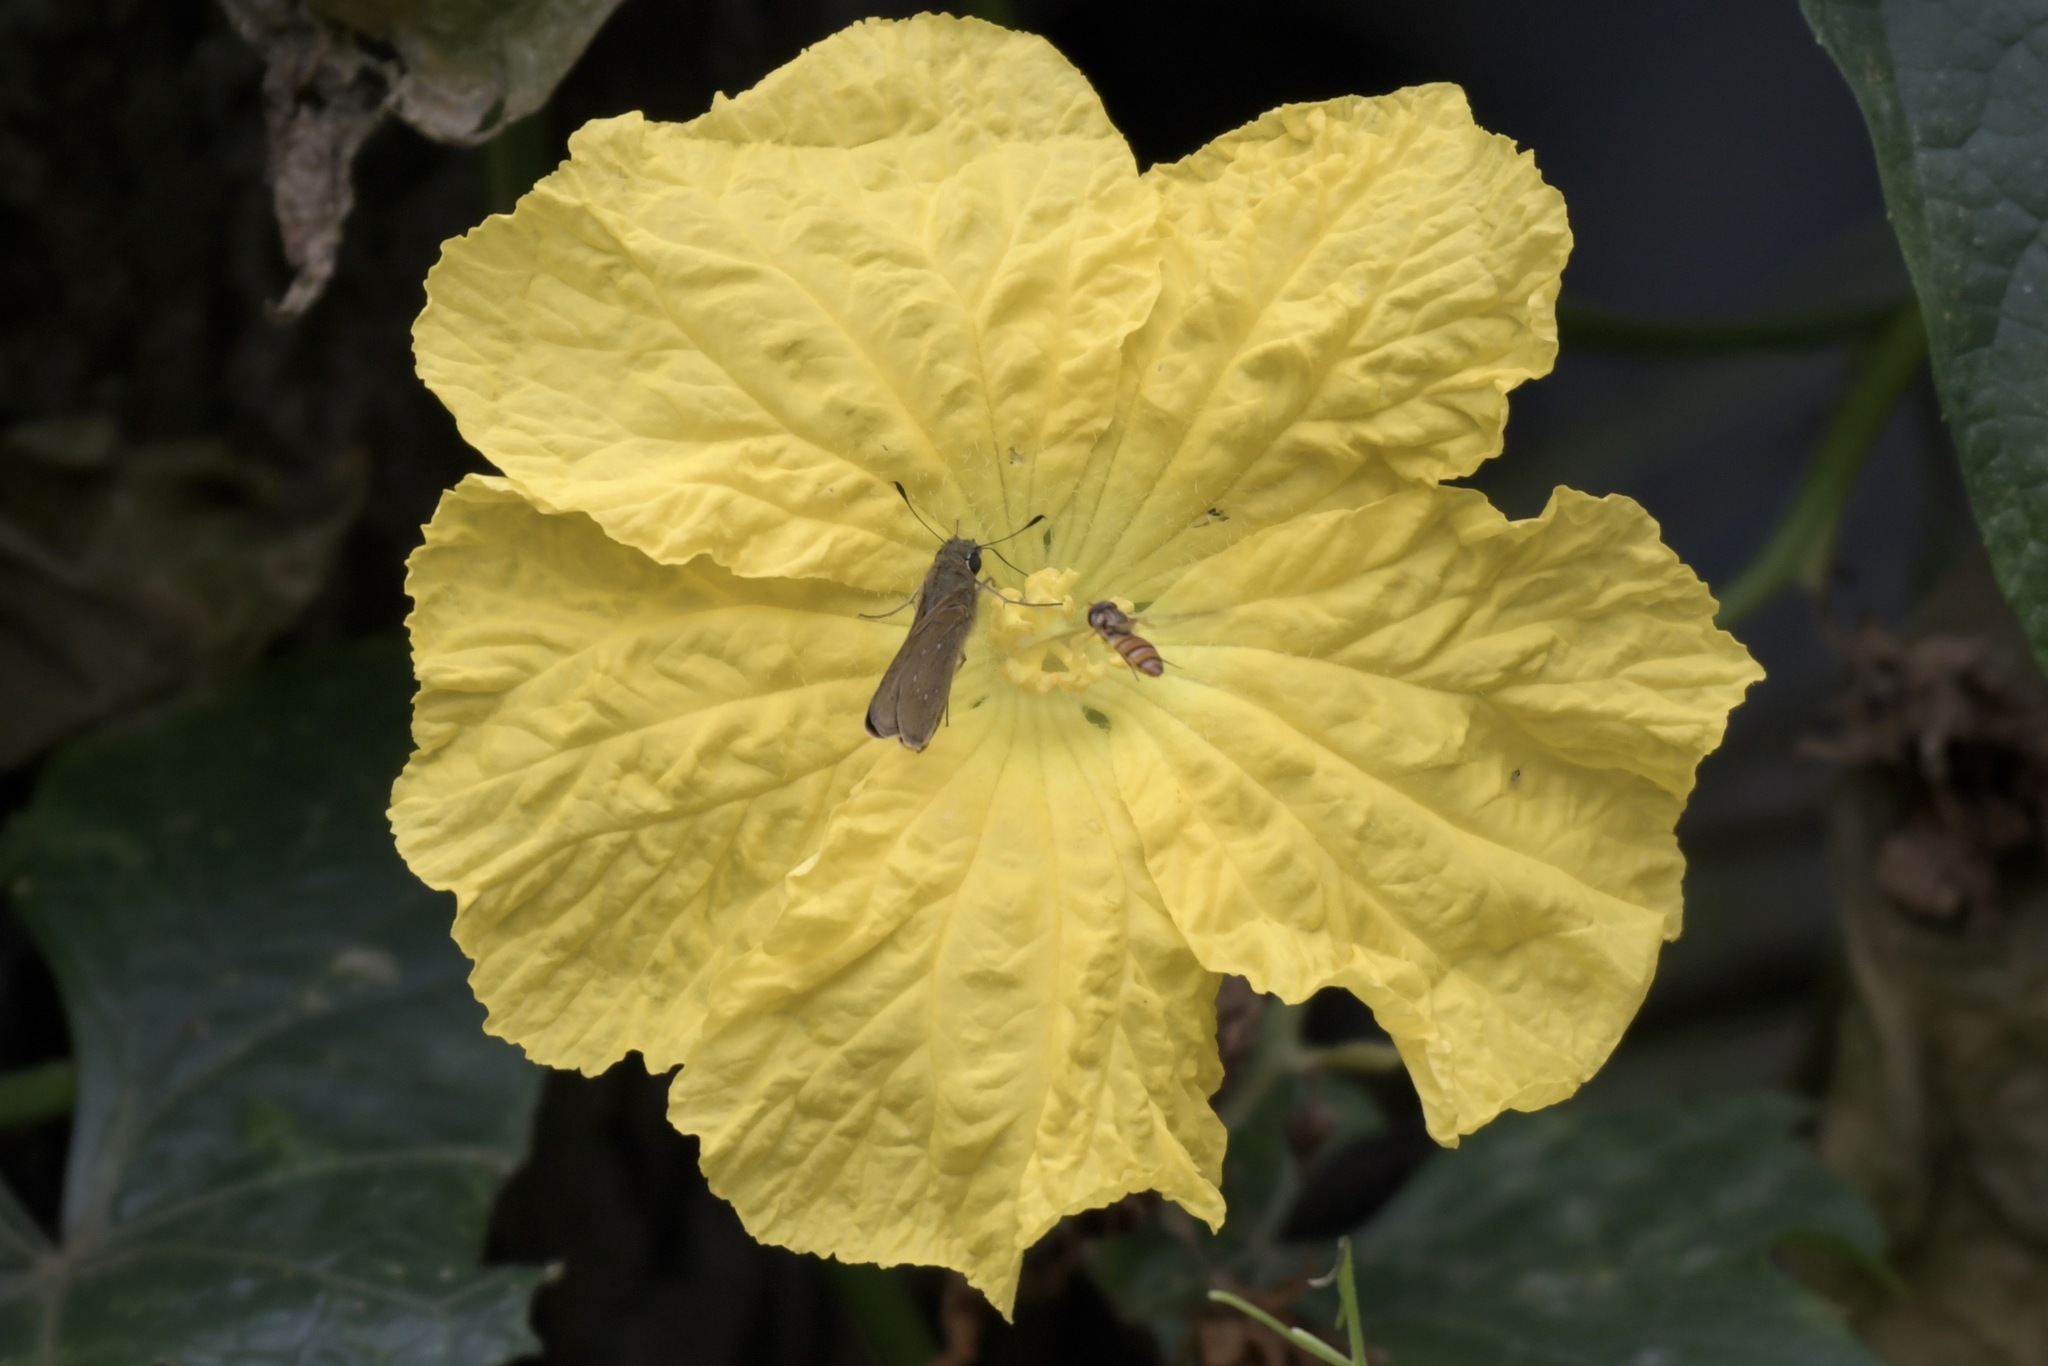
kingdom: Animalia
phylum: Arthropoda
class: Insecta
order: Diptera
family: Syrphidae
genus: Episyrphus
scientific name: Episyrphus balteatus
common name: Marmalade hoverfly
